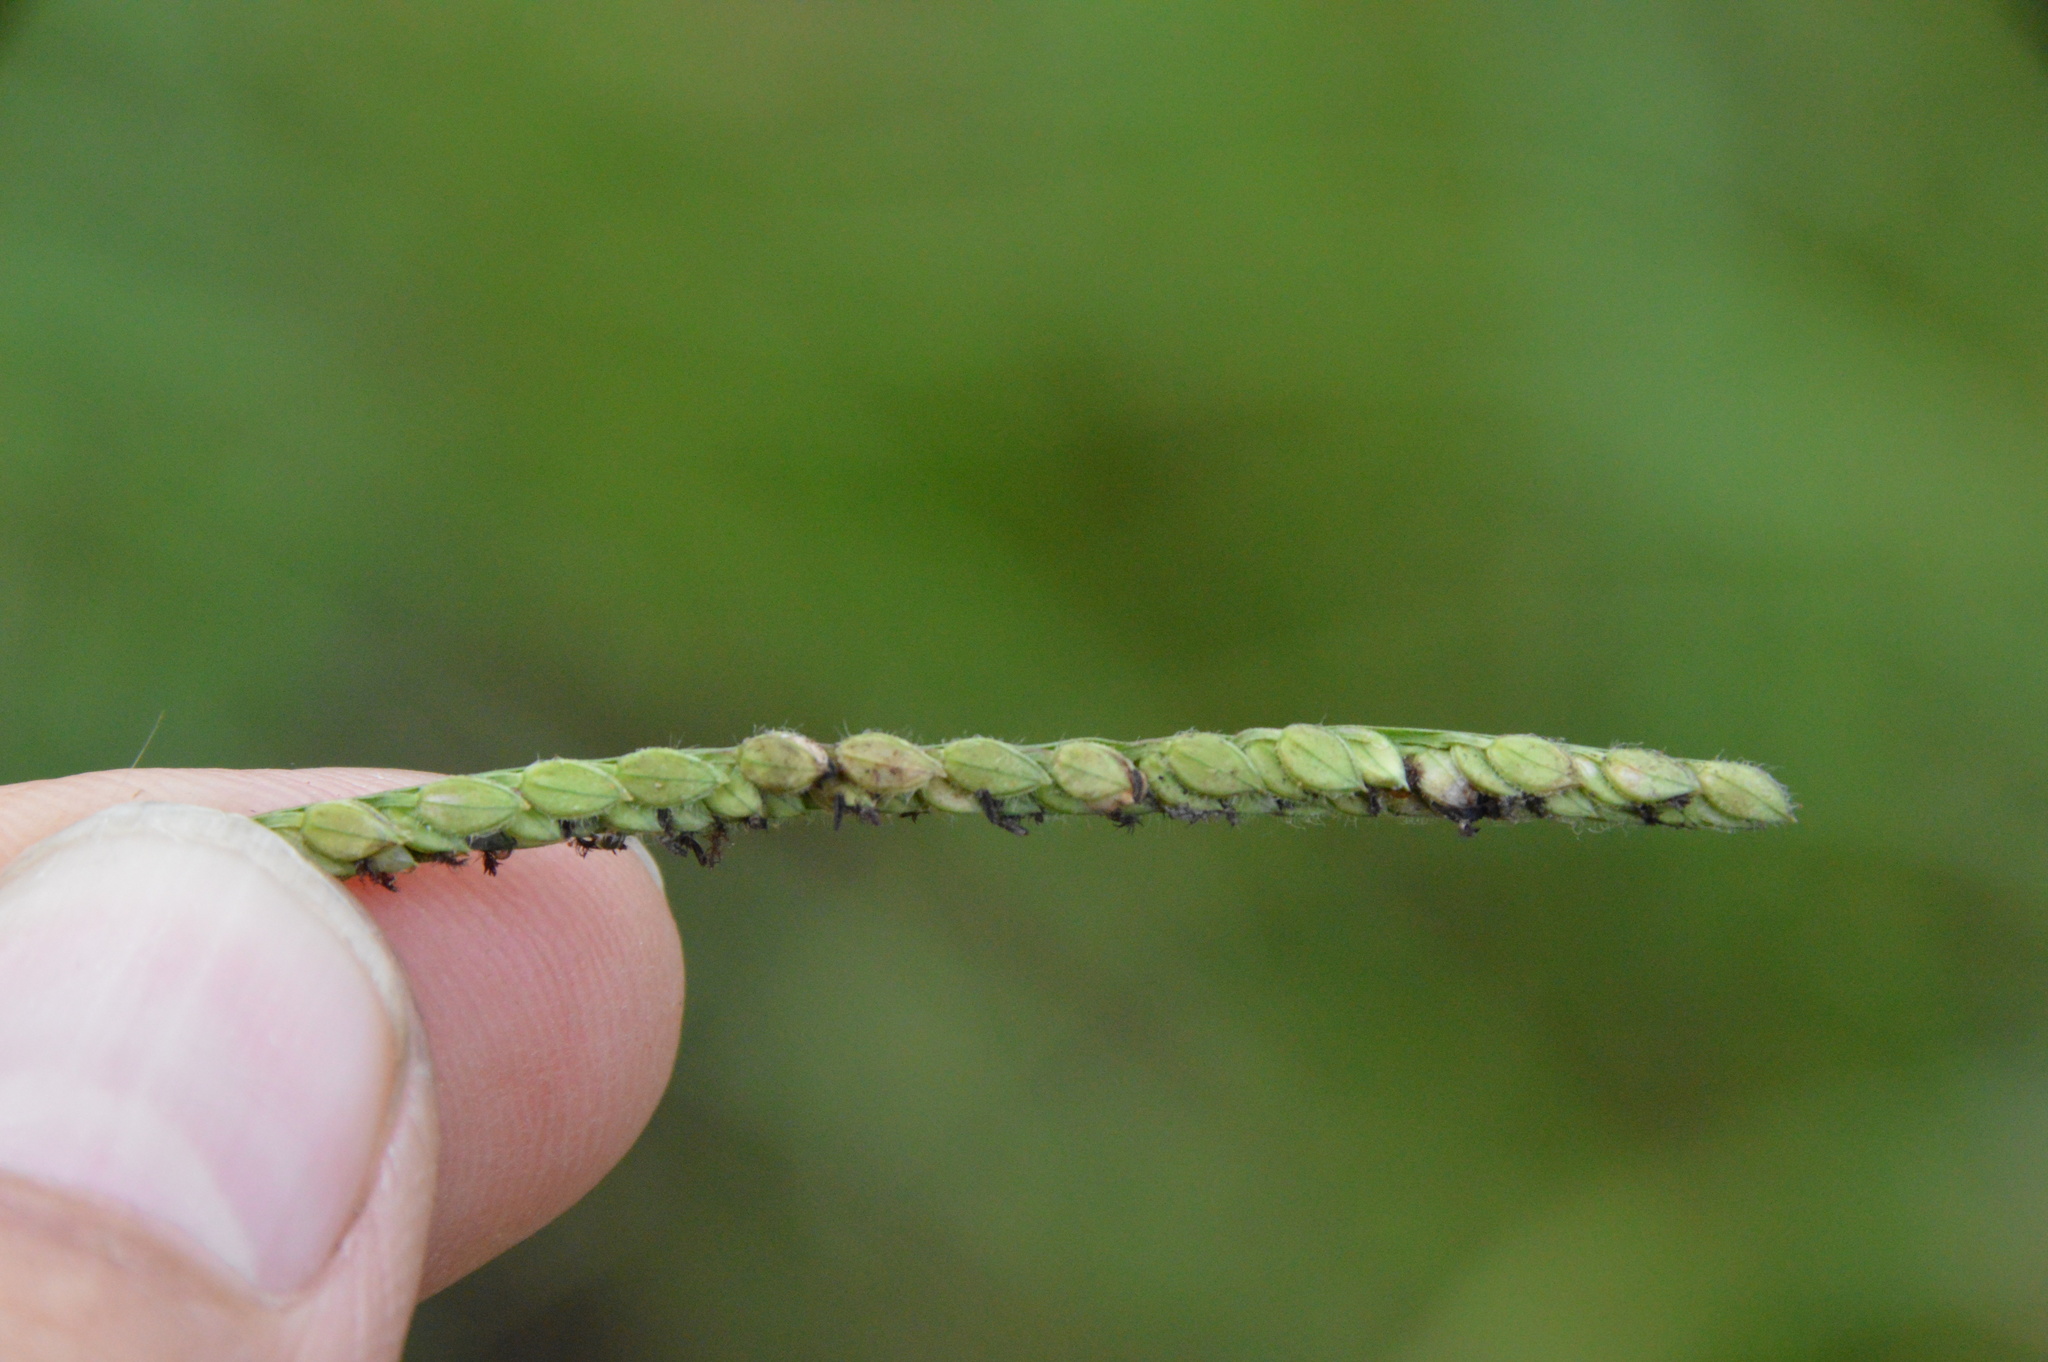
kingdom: Plantae
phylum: Tracheophyta
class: Liliopsida
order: Poales
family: Poaceae
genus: Paspalum
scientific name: Paspalum dilatatum
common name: Dallisgrass
